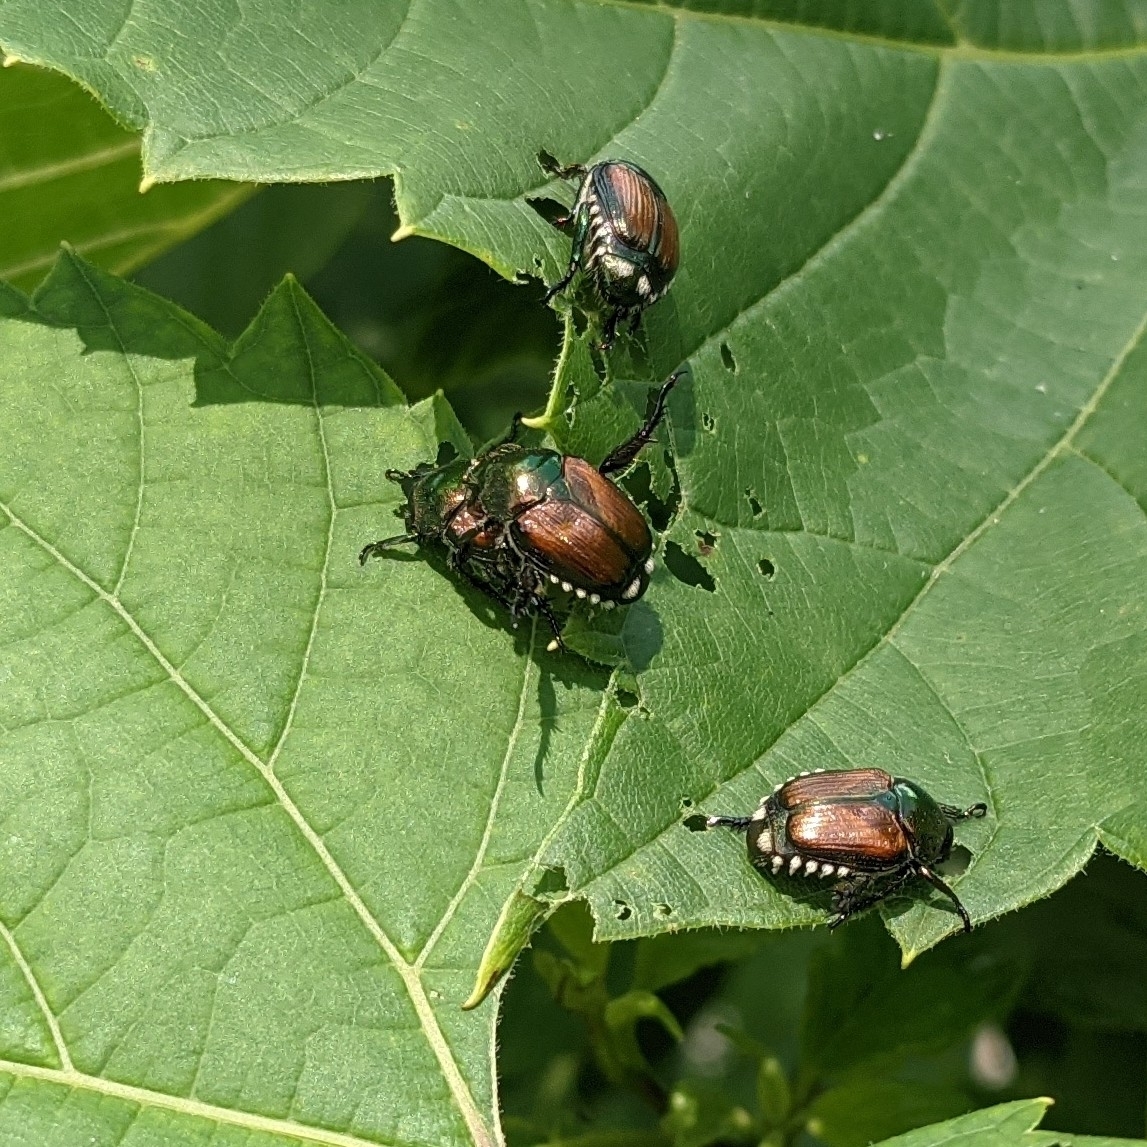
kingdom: Animalia
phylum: Arthropoda
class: Insecta
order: Coleoptera
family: Scarabaeidae
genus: Popillia
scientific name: Popillia japonica
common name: Japanese beetle
